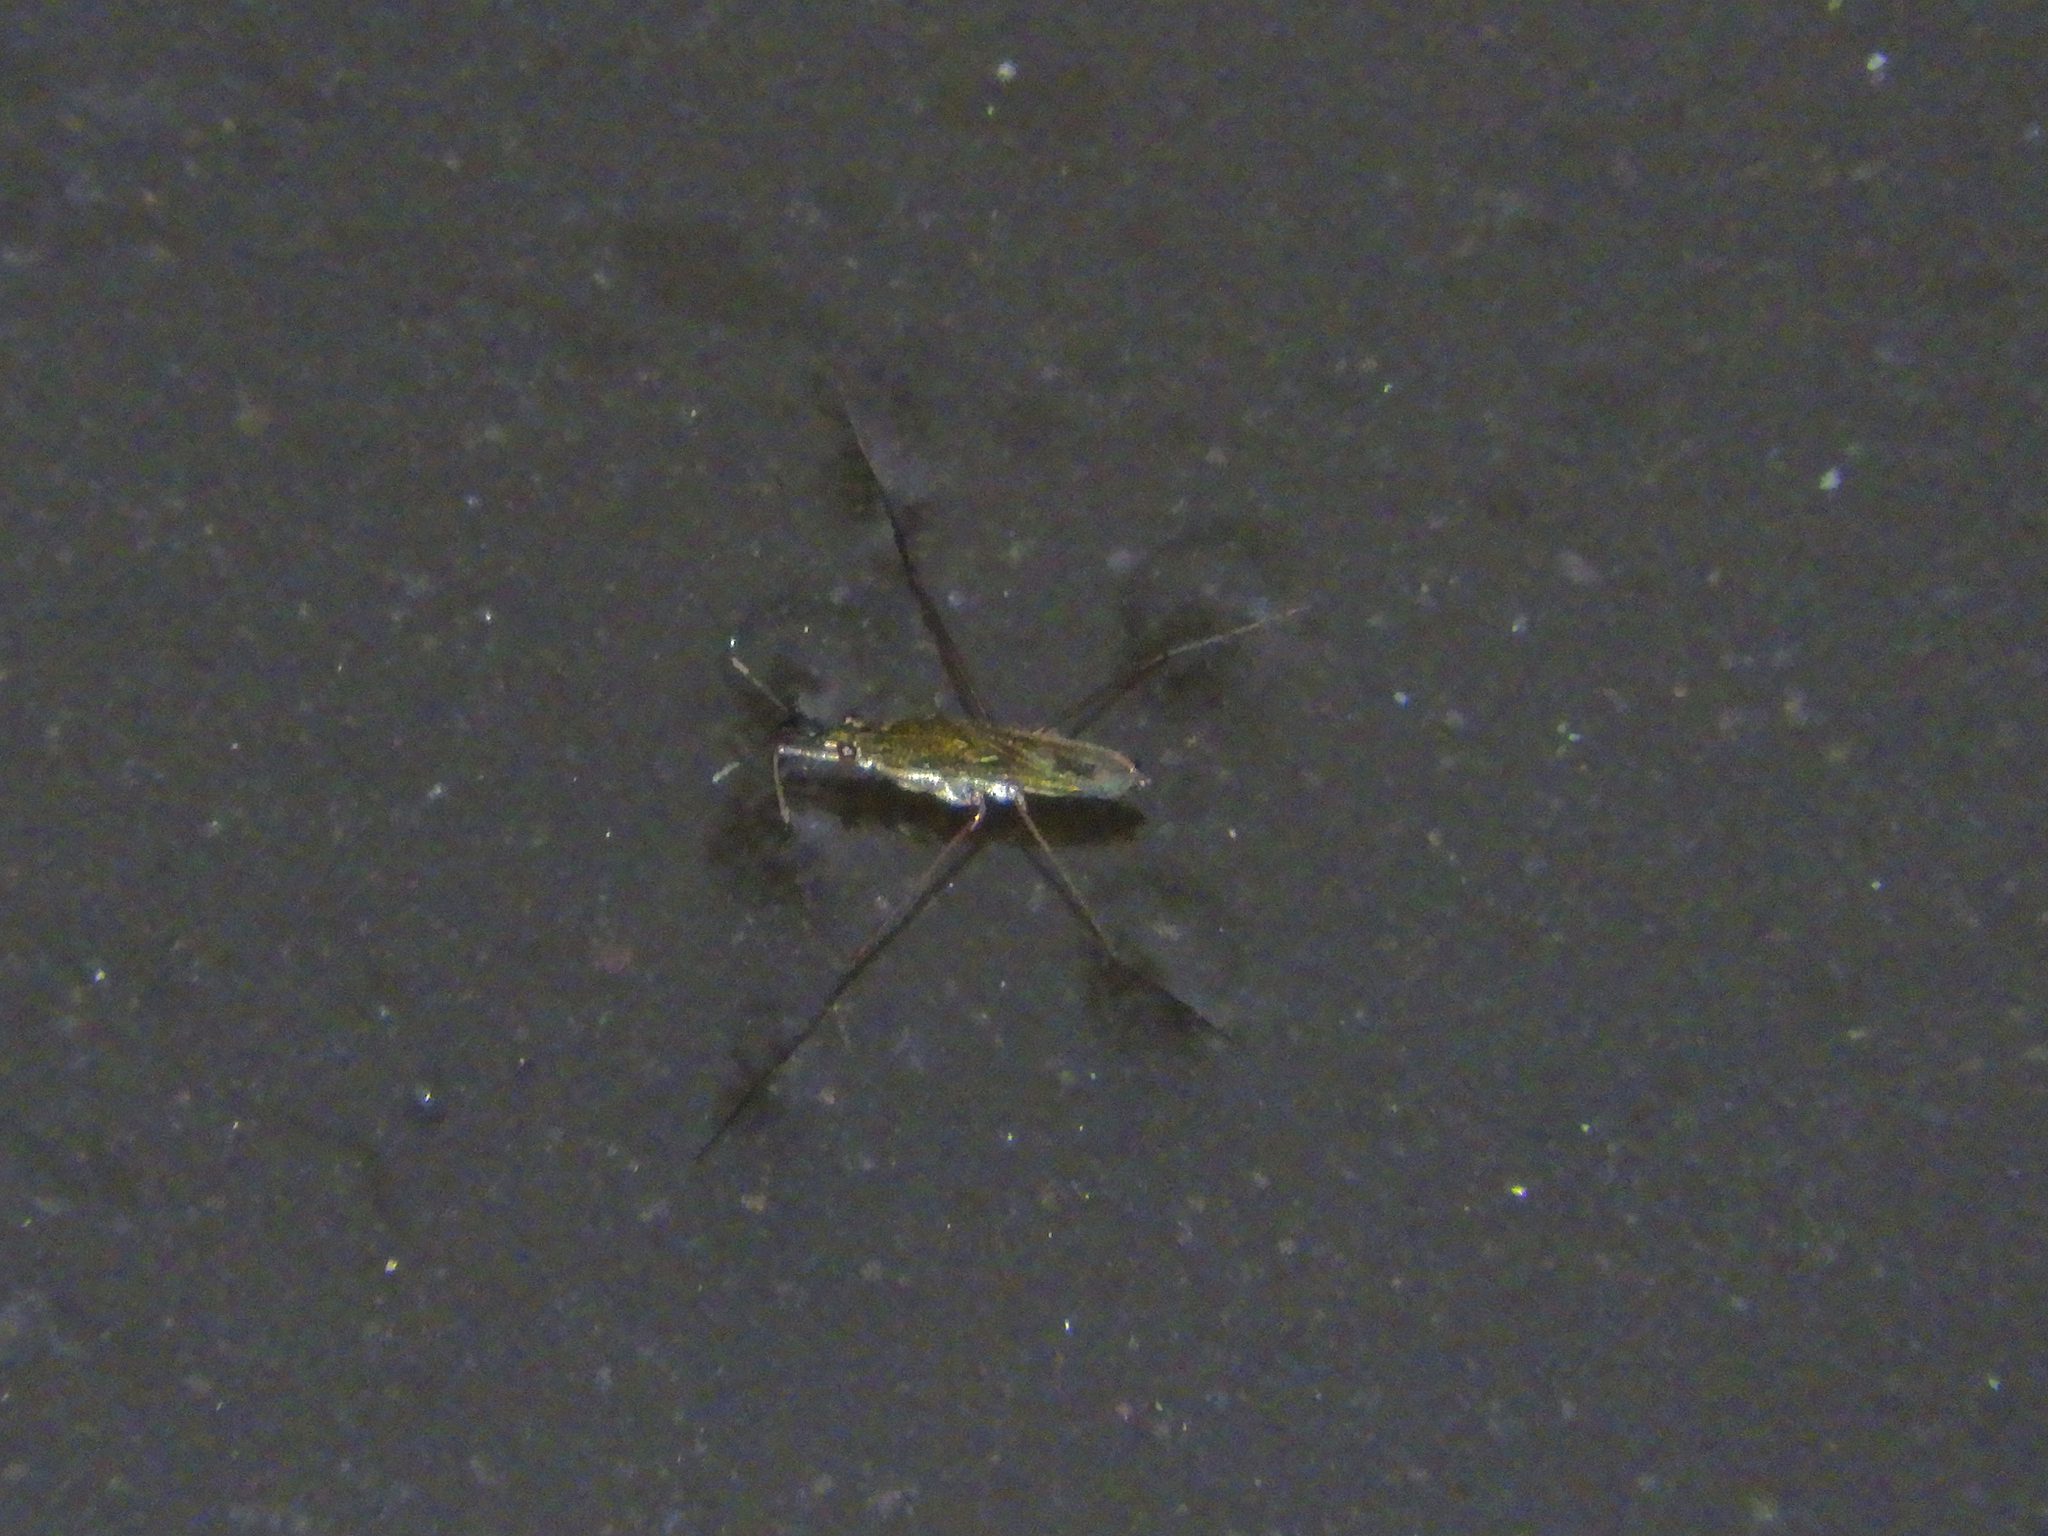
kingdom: Animalia
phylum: Arthropoda
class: Insecta
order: Hemiptera
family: Gerridae
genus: Gerris
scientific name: Gerris
